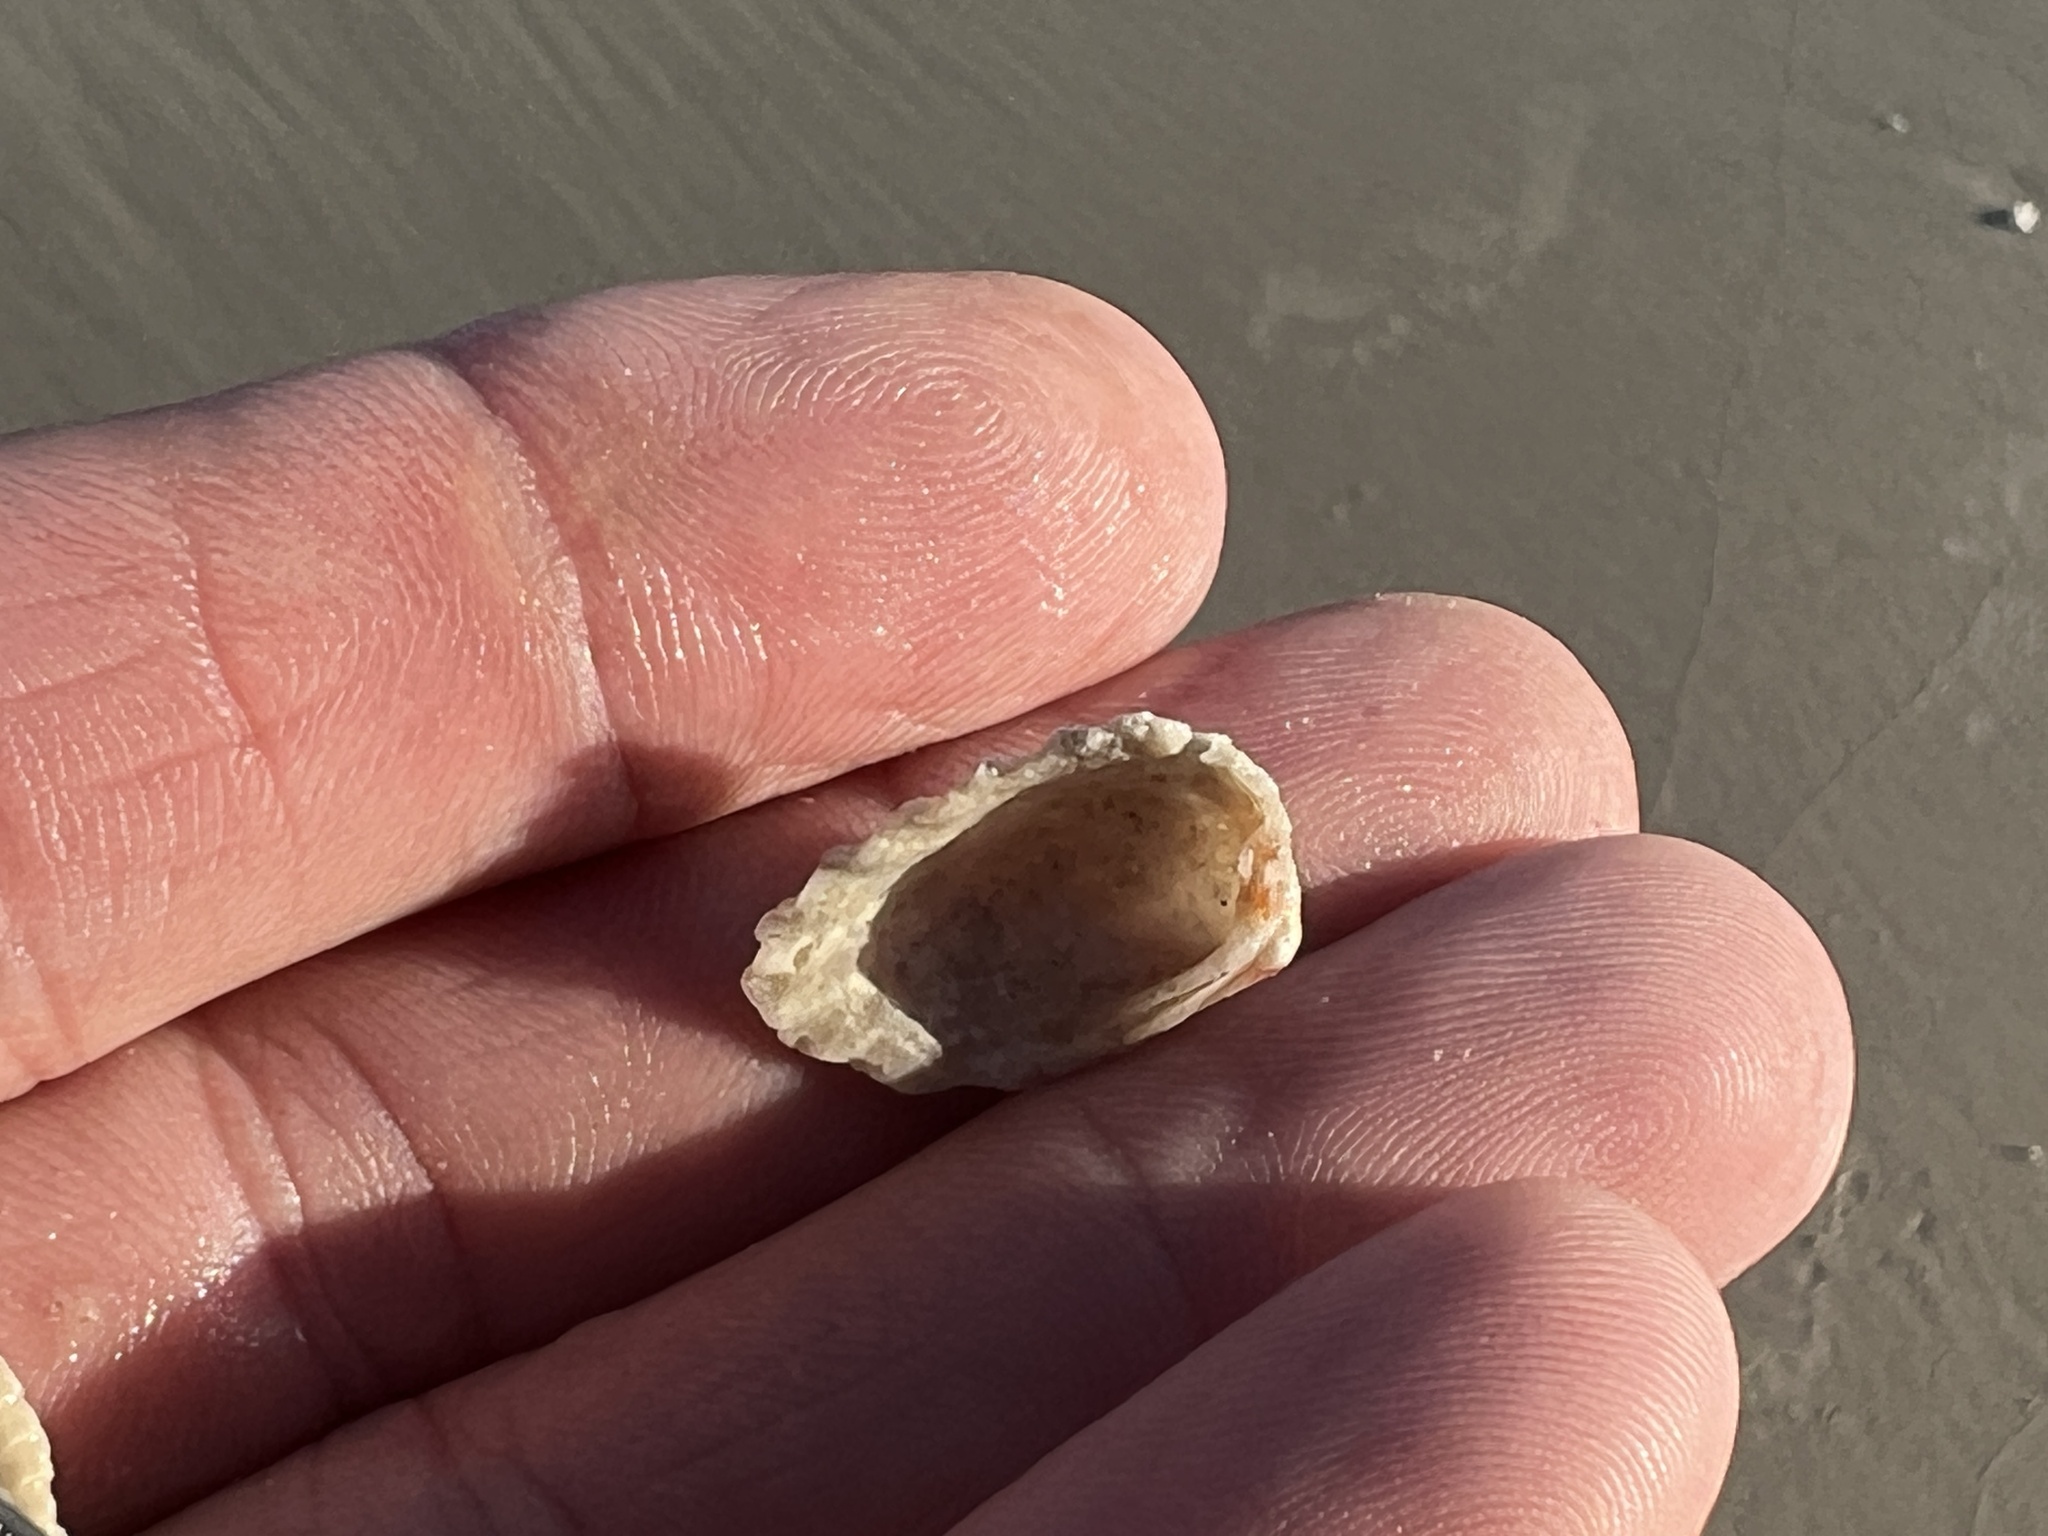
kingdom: Animalia
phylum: Mollusca
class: Bivalvia
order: Carditida
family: Carditidae
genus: Cardites
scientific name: Cardites floridanus
